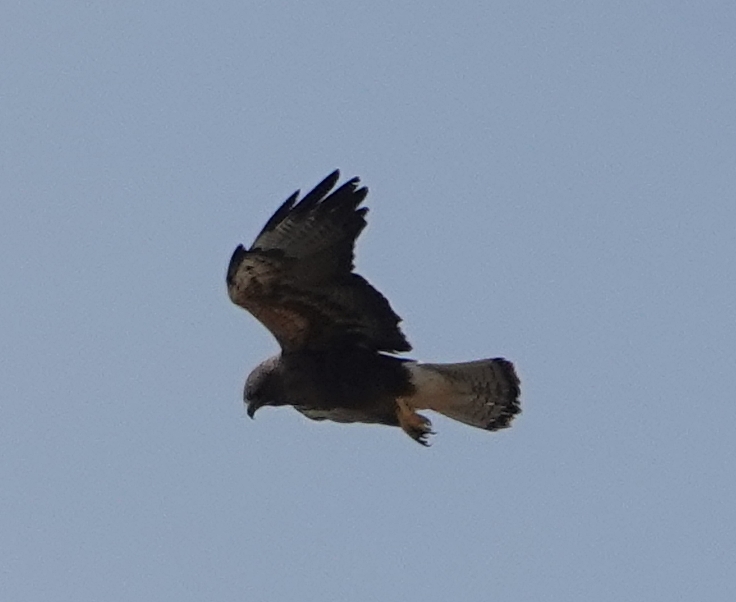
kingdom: Animalia
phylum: Chordata
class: Aves
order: Accipitriformes
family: Accipitridae
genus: Buteo
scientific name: Buteo swainsoni
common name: Swainson's hawk
